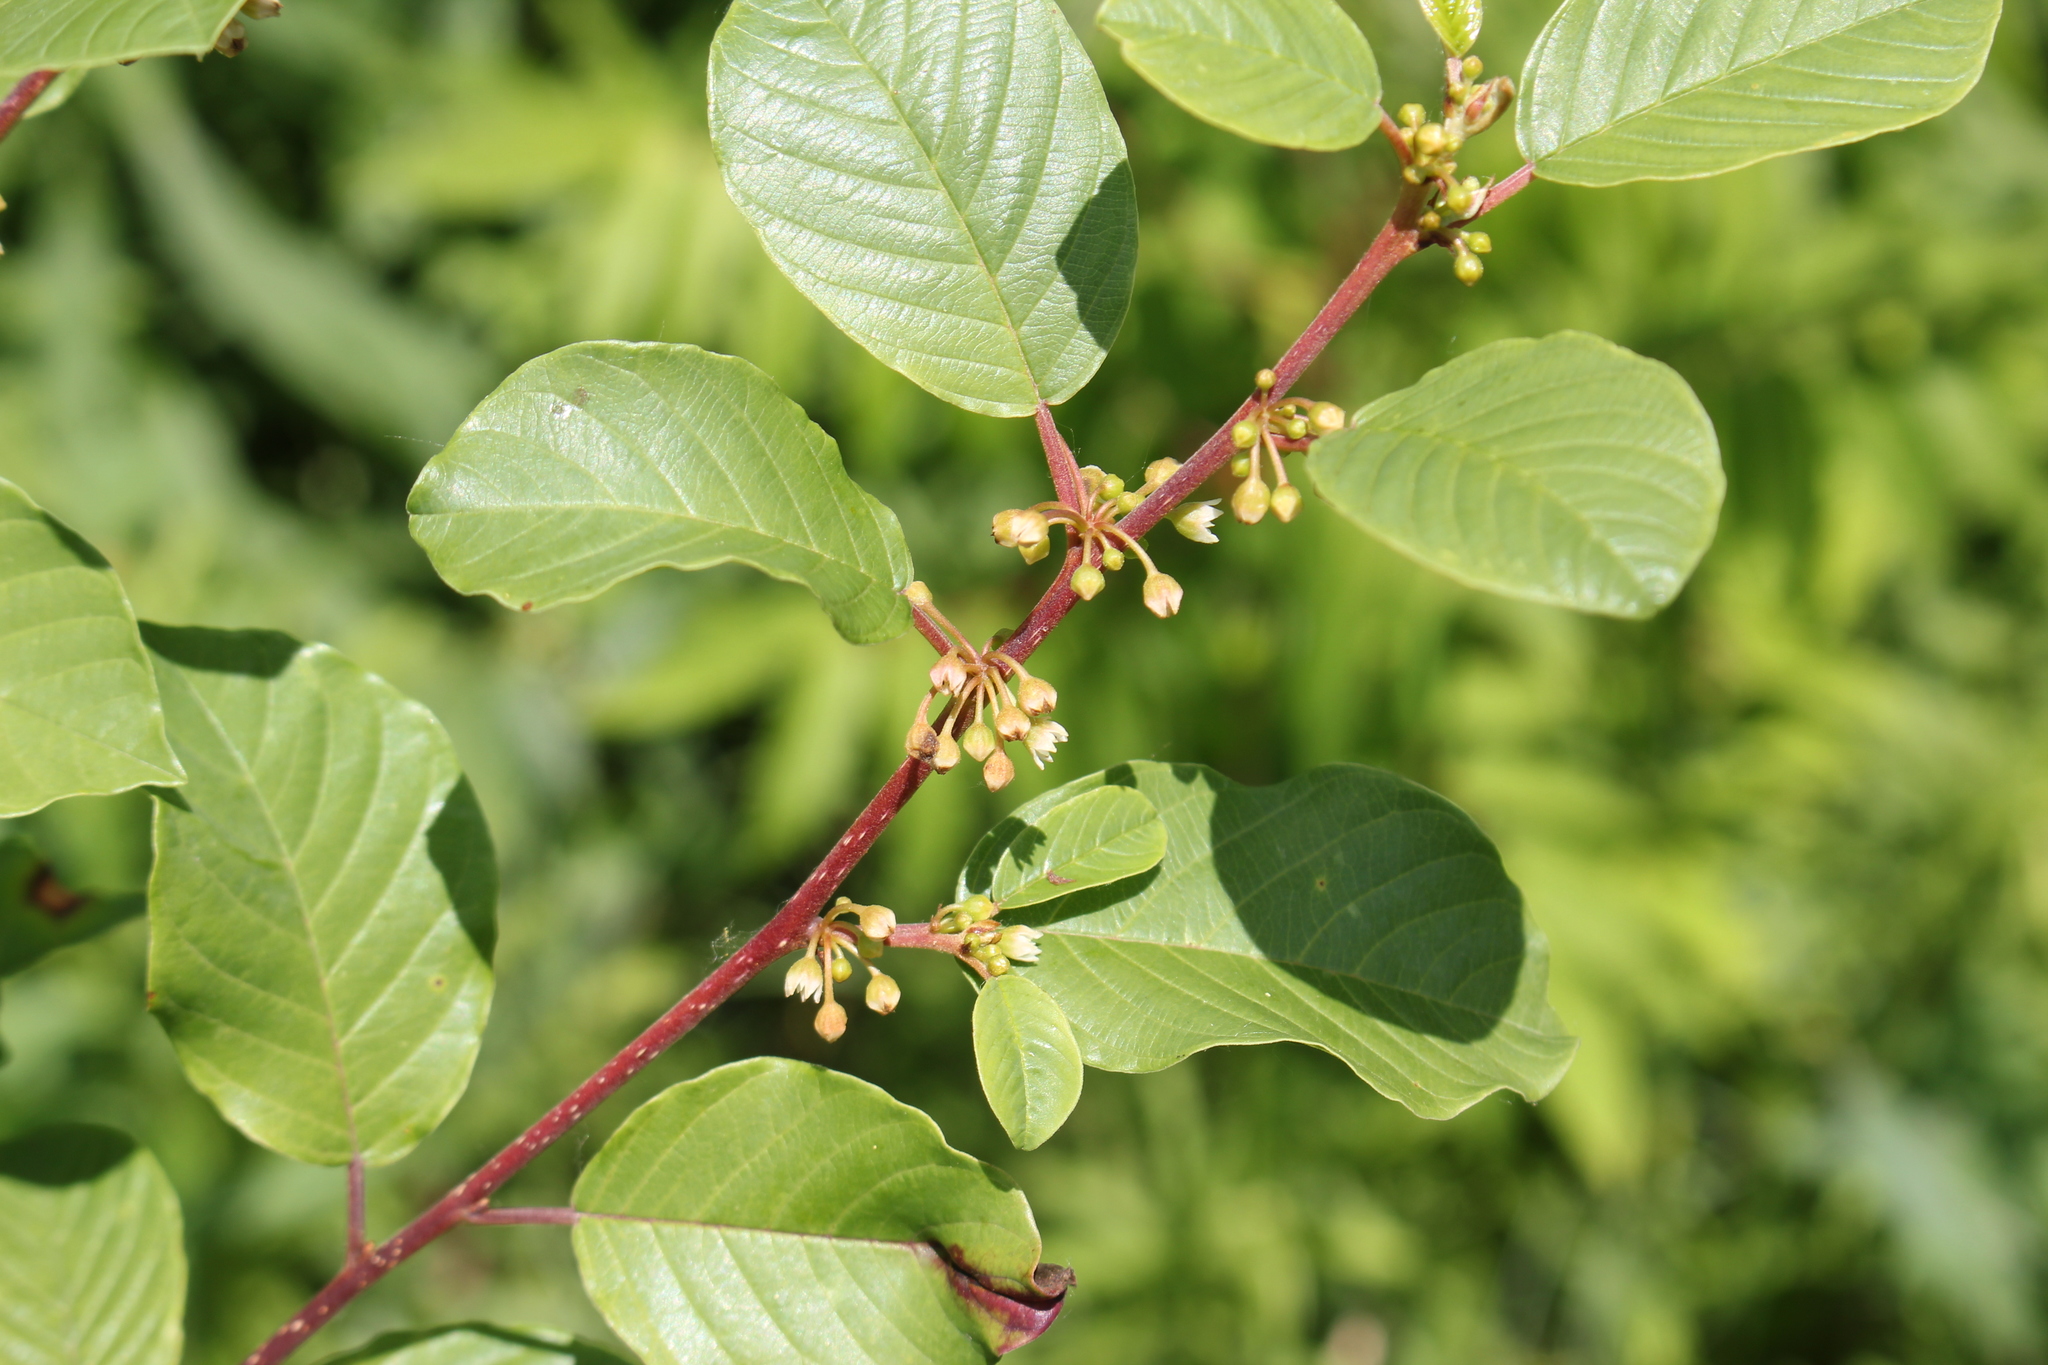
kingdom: Plantae
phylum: Tracheophyta
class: Magnoliopsida
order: Rosales
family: Rhamnaceae
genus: Frangula
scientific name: Frangula alnus
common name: Alder buckthorn
